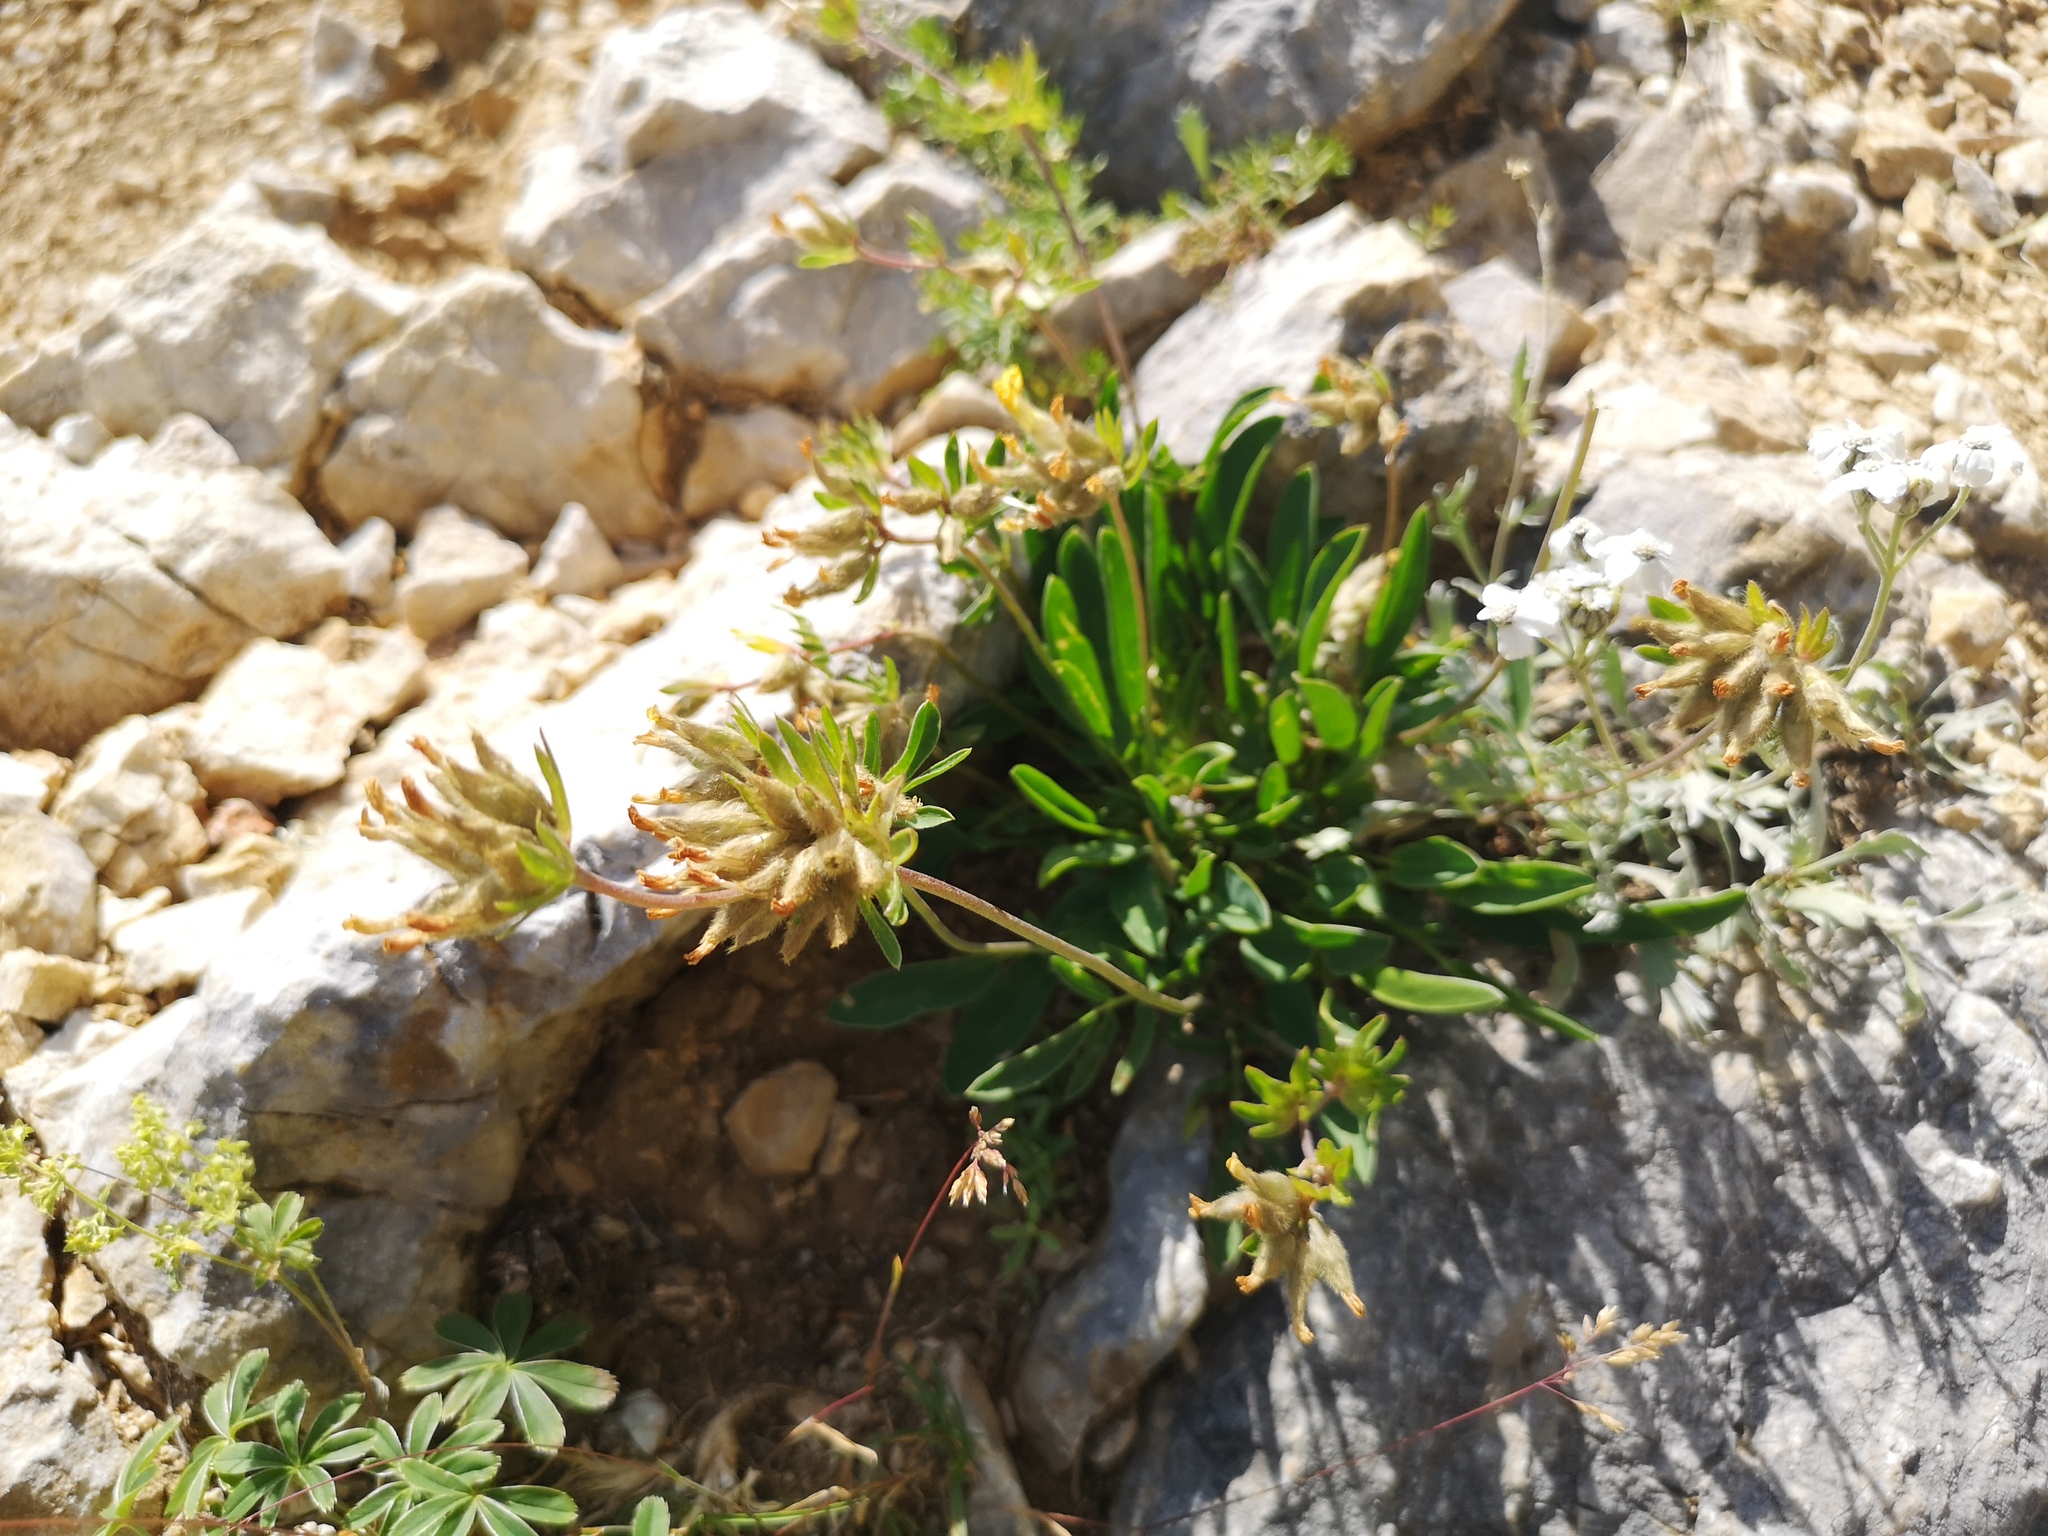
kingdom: Plantae
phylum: Tracheophyta
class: Magnoliopsida
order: Fabales
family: Fabaceae
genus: Anthyllis
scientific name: Anthyllis vulneraria
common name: Kidney vetch
